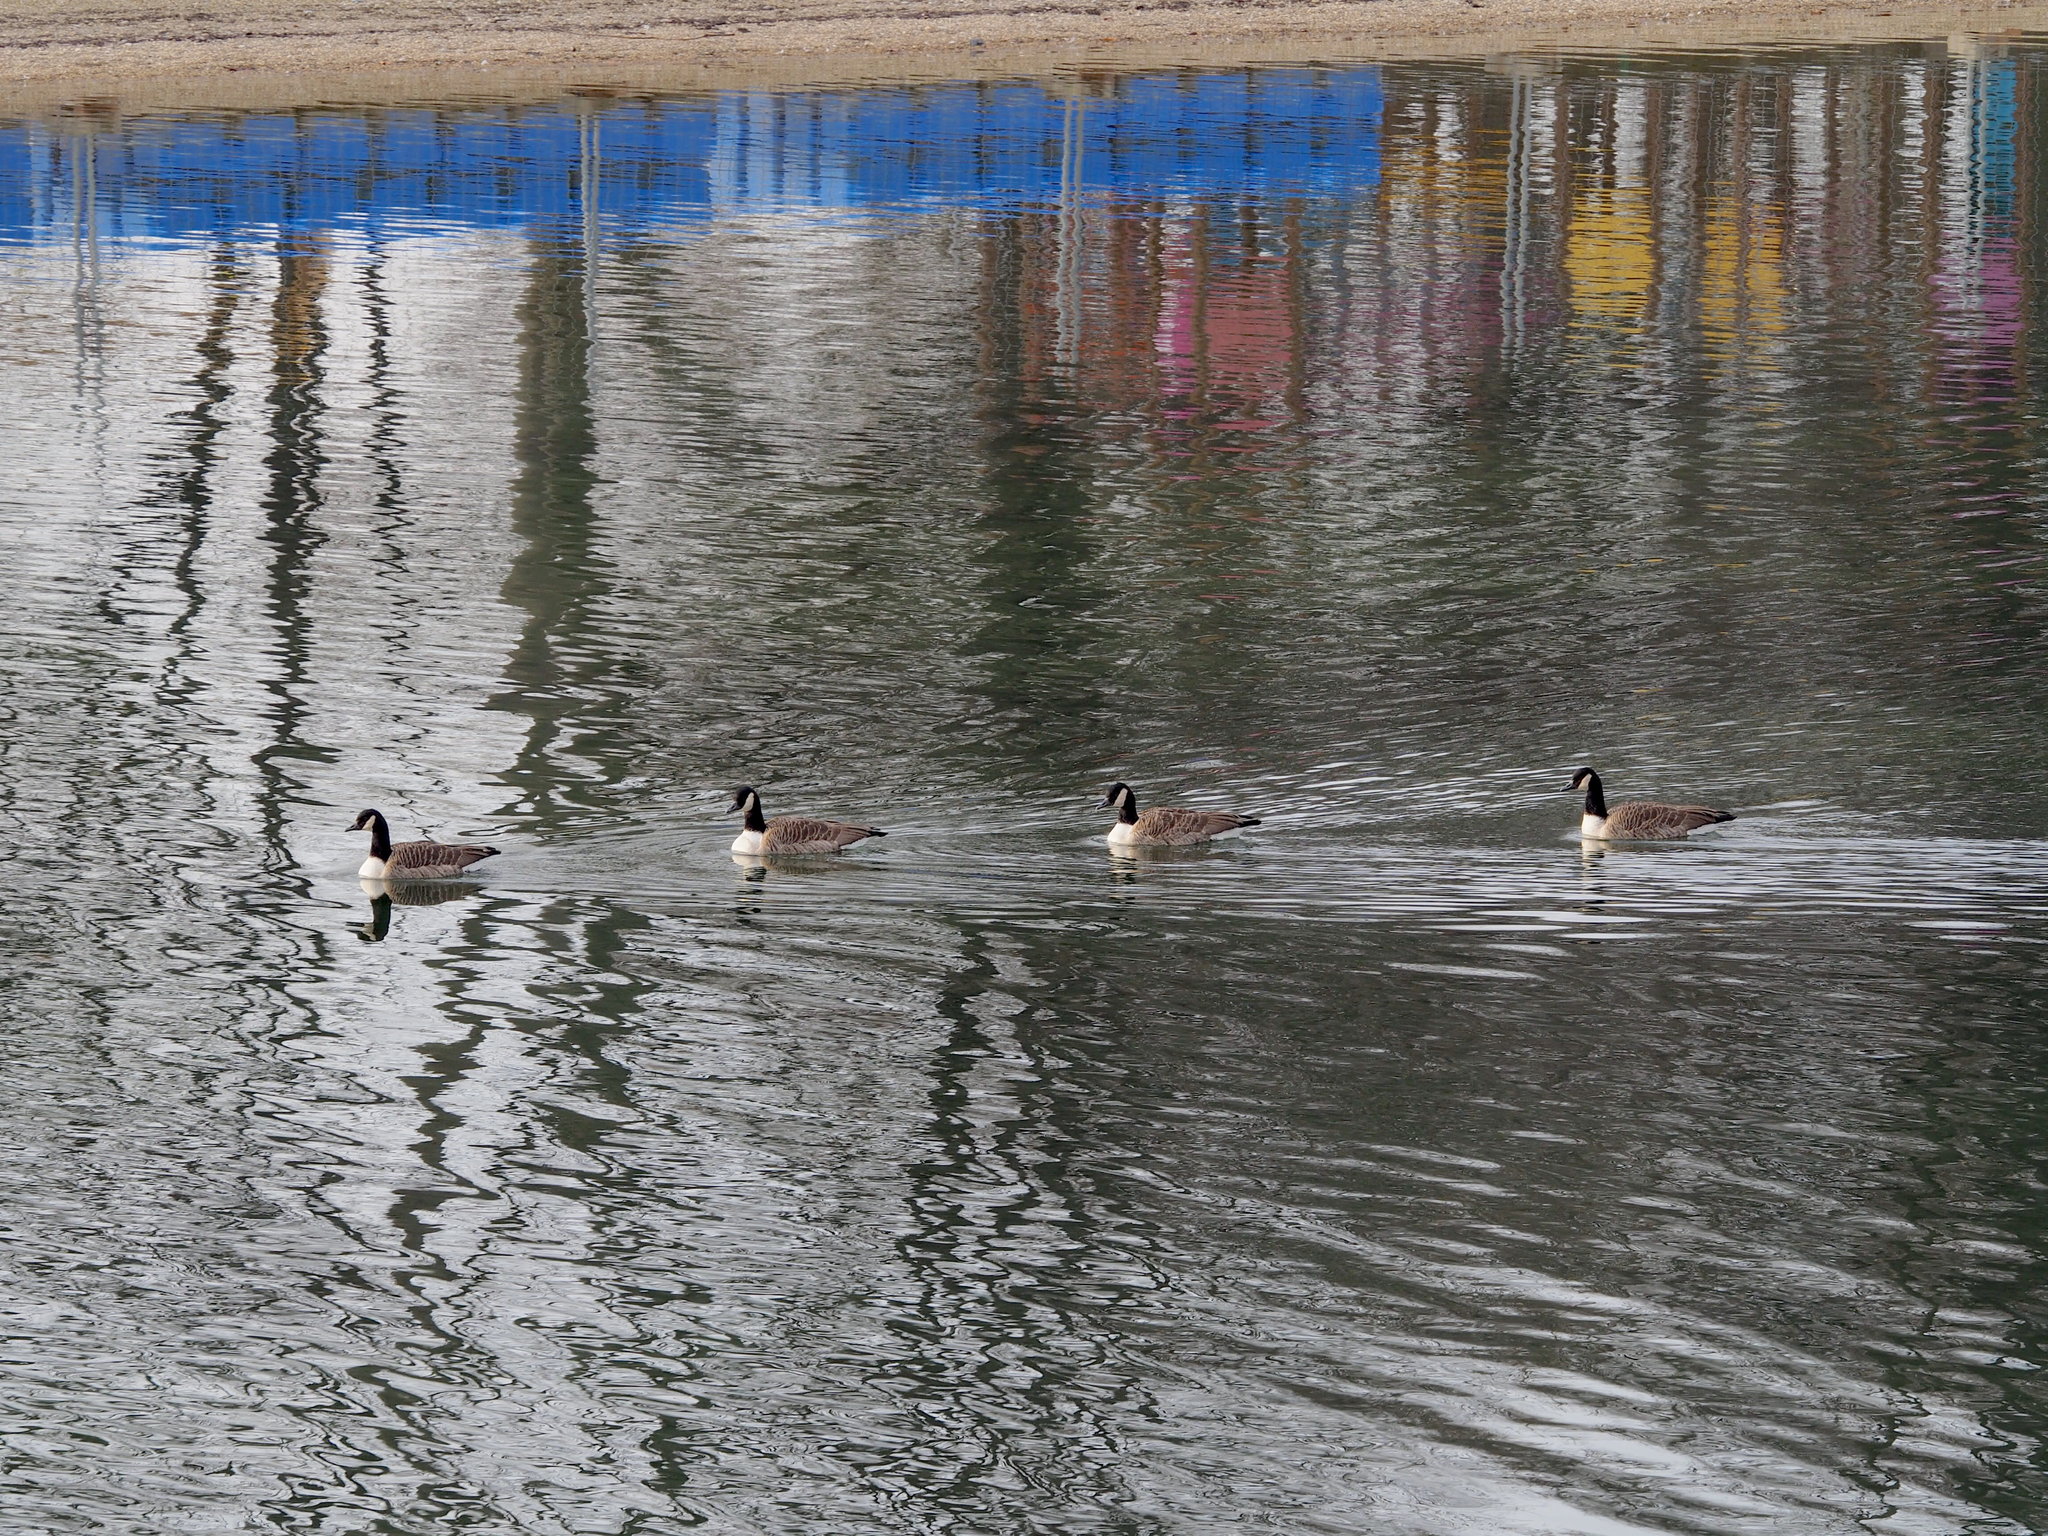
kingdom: Animalia
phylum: Chordata
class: Aves
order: Anseriformes
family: Anatidae
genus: Branta
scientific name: Branta canadensis
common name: Canada goose
